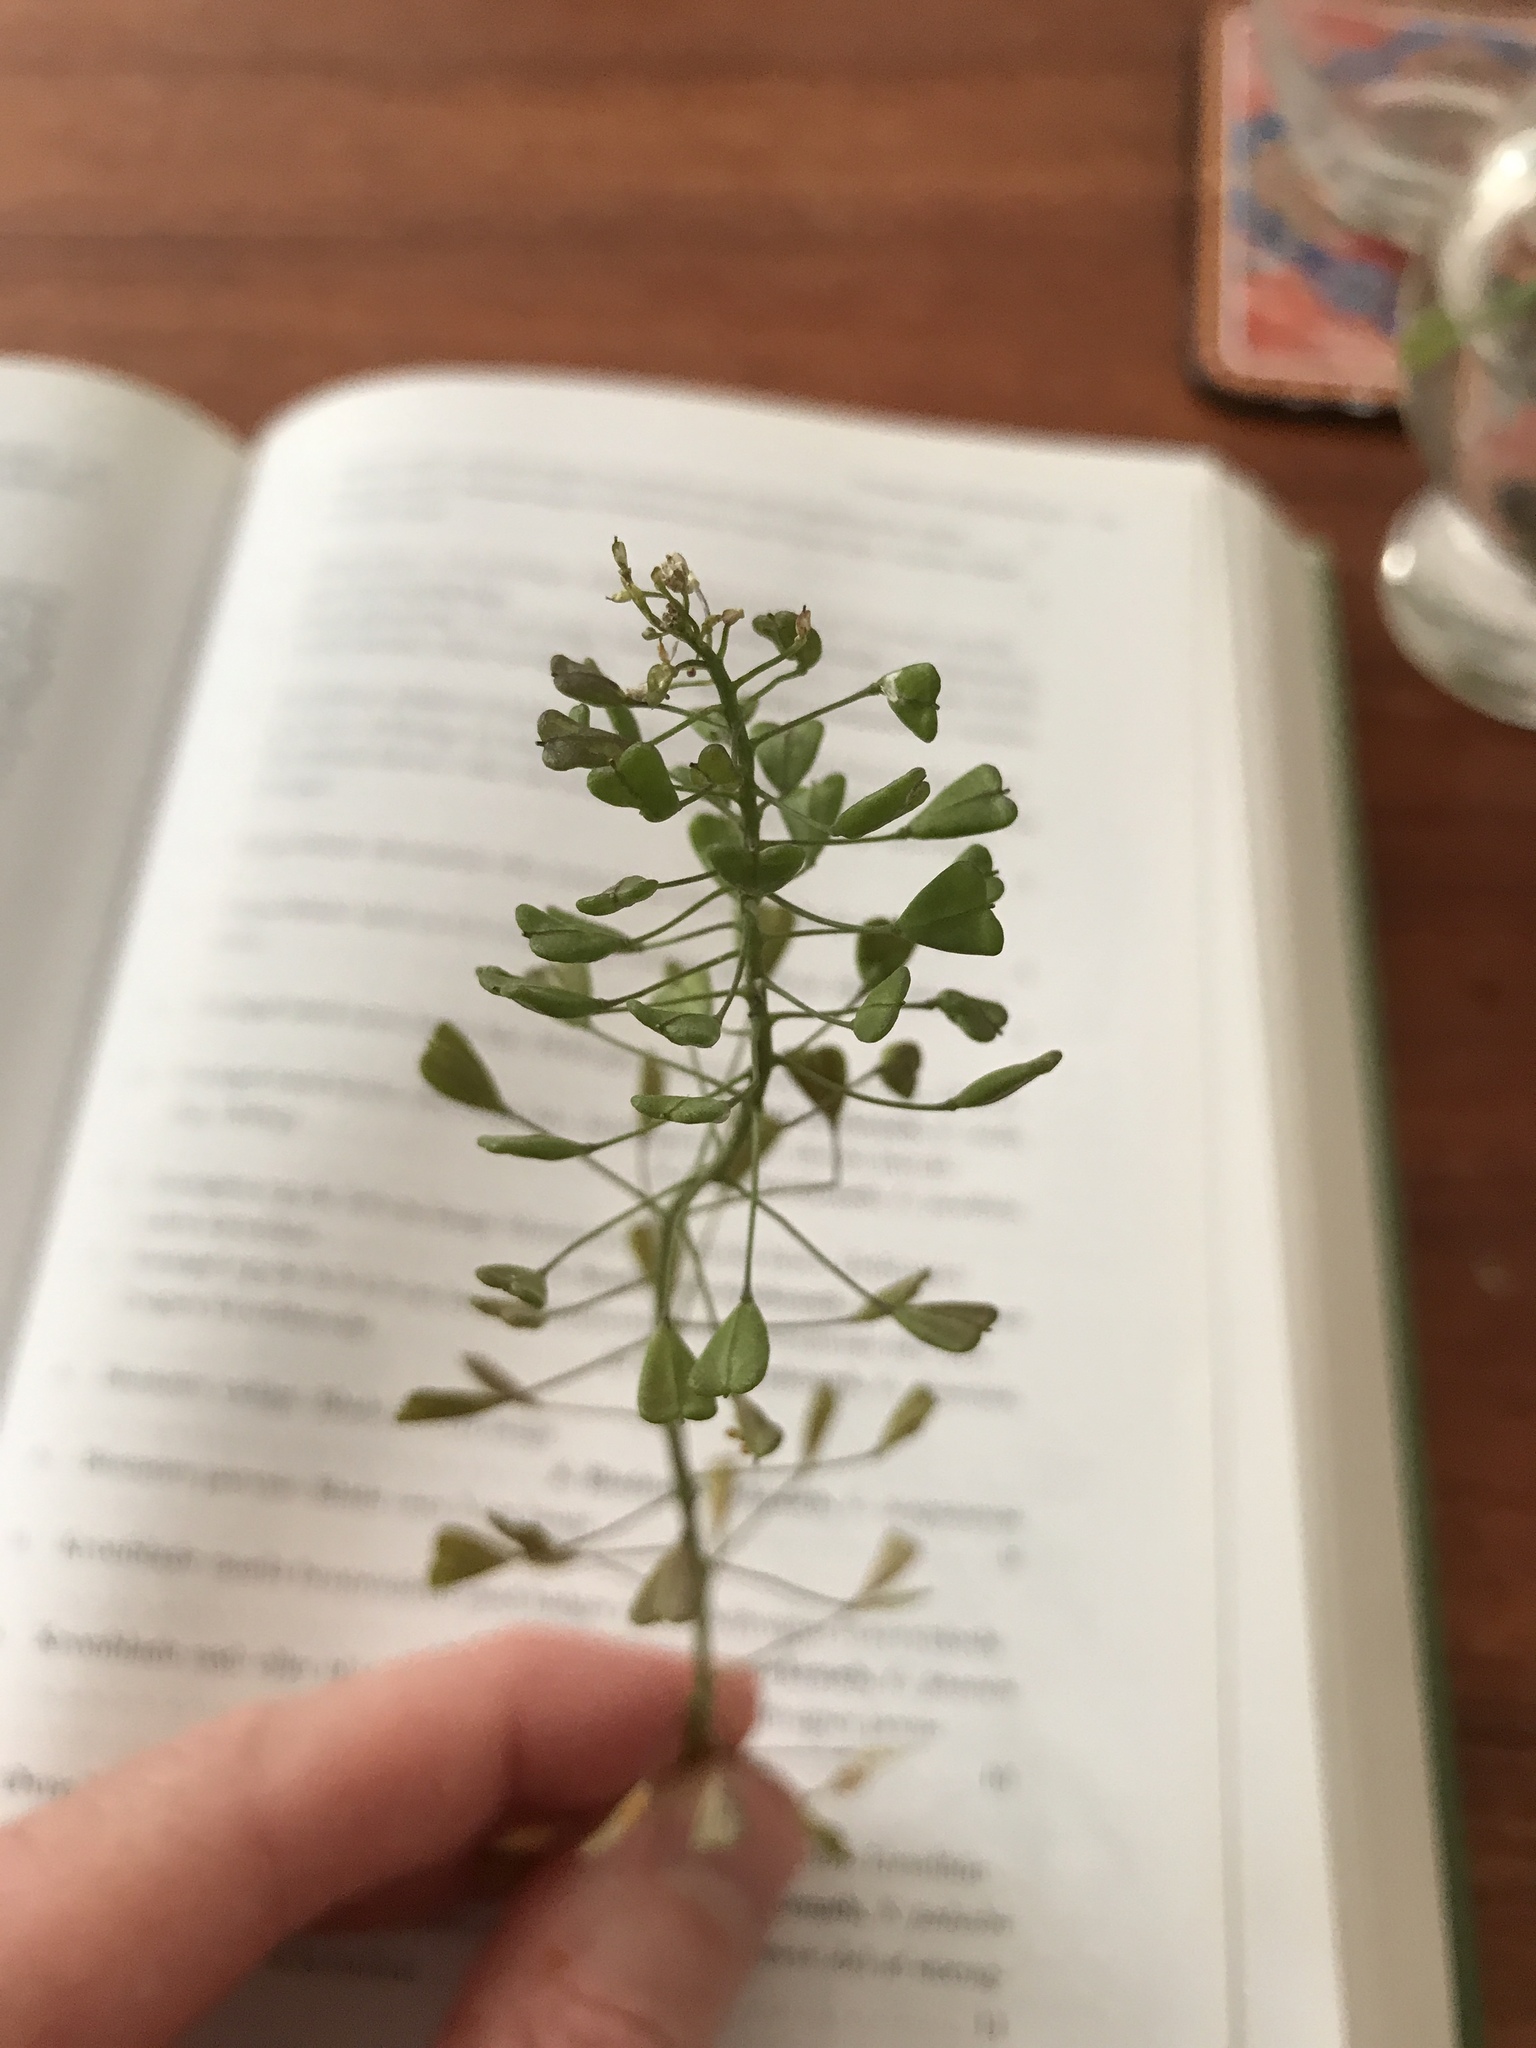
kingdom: Plantae
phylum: Tracheophyta
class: Magnoliopsida
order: Brassicales
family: Brassicaceae
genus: Capsella
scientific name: Capsella bursa-pastoris
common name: Shepherd's purse
